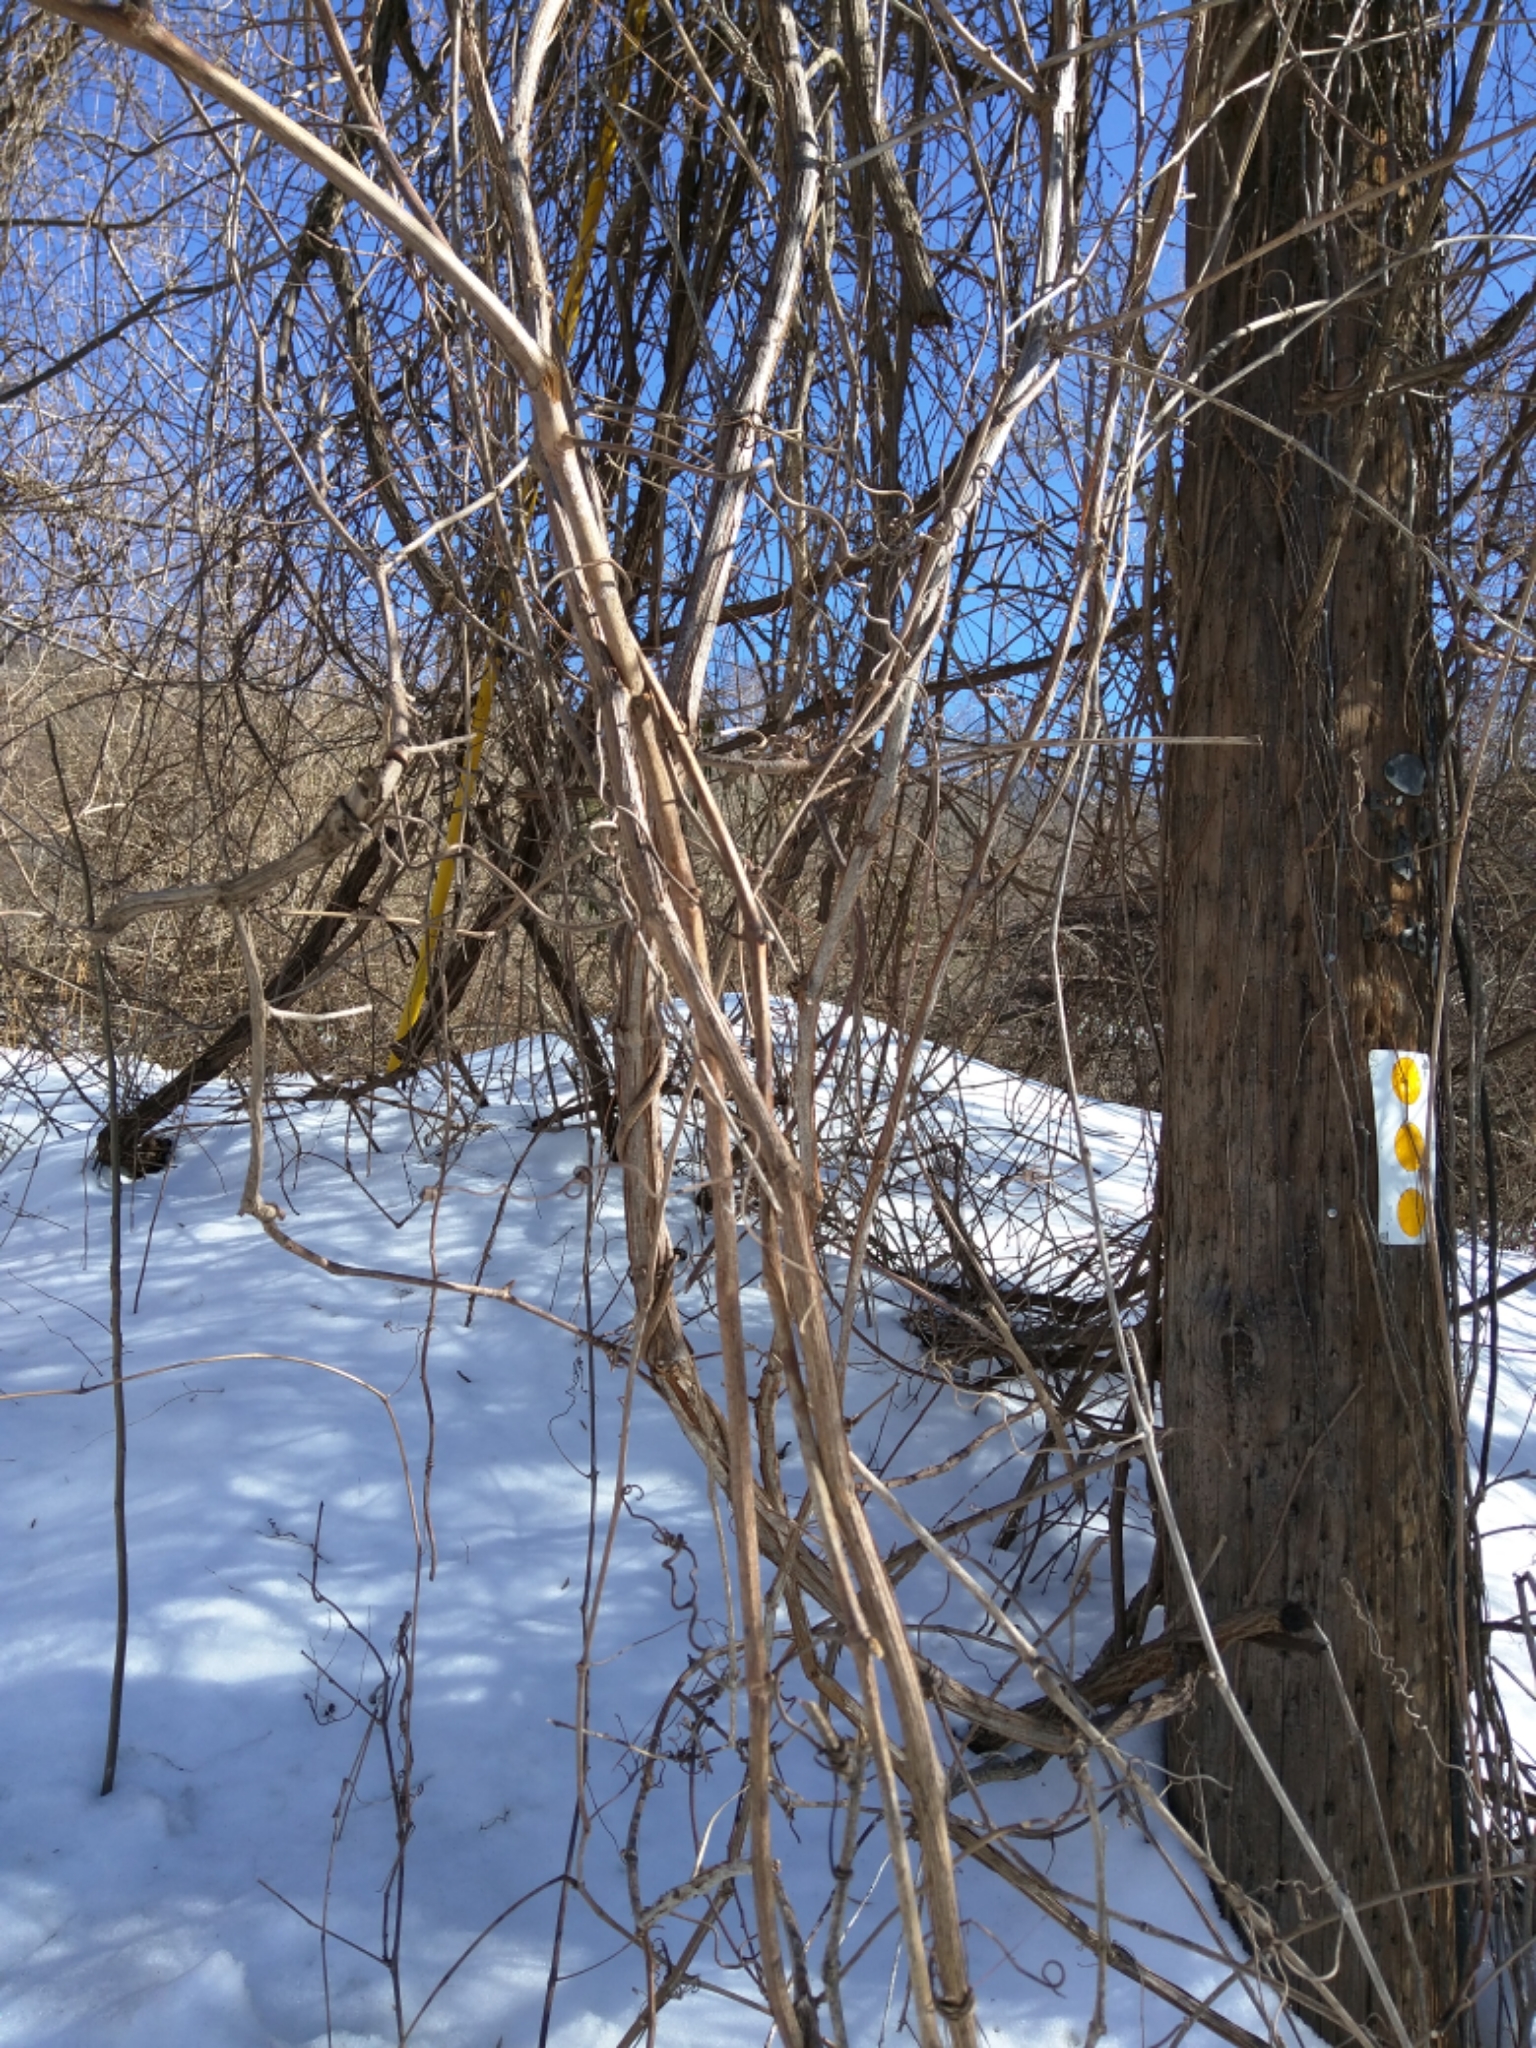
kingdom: Plantae
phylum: Tracheophyta
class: Magnoliopsida
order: Vitales
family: Vitaceae
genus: Vitis
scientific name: Vitis
